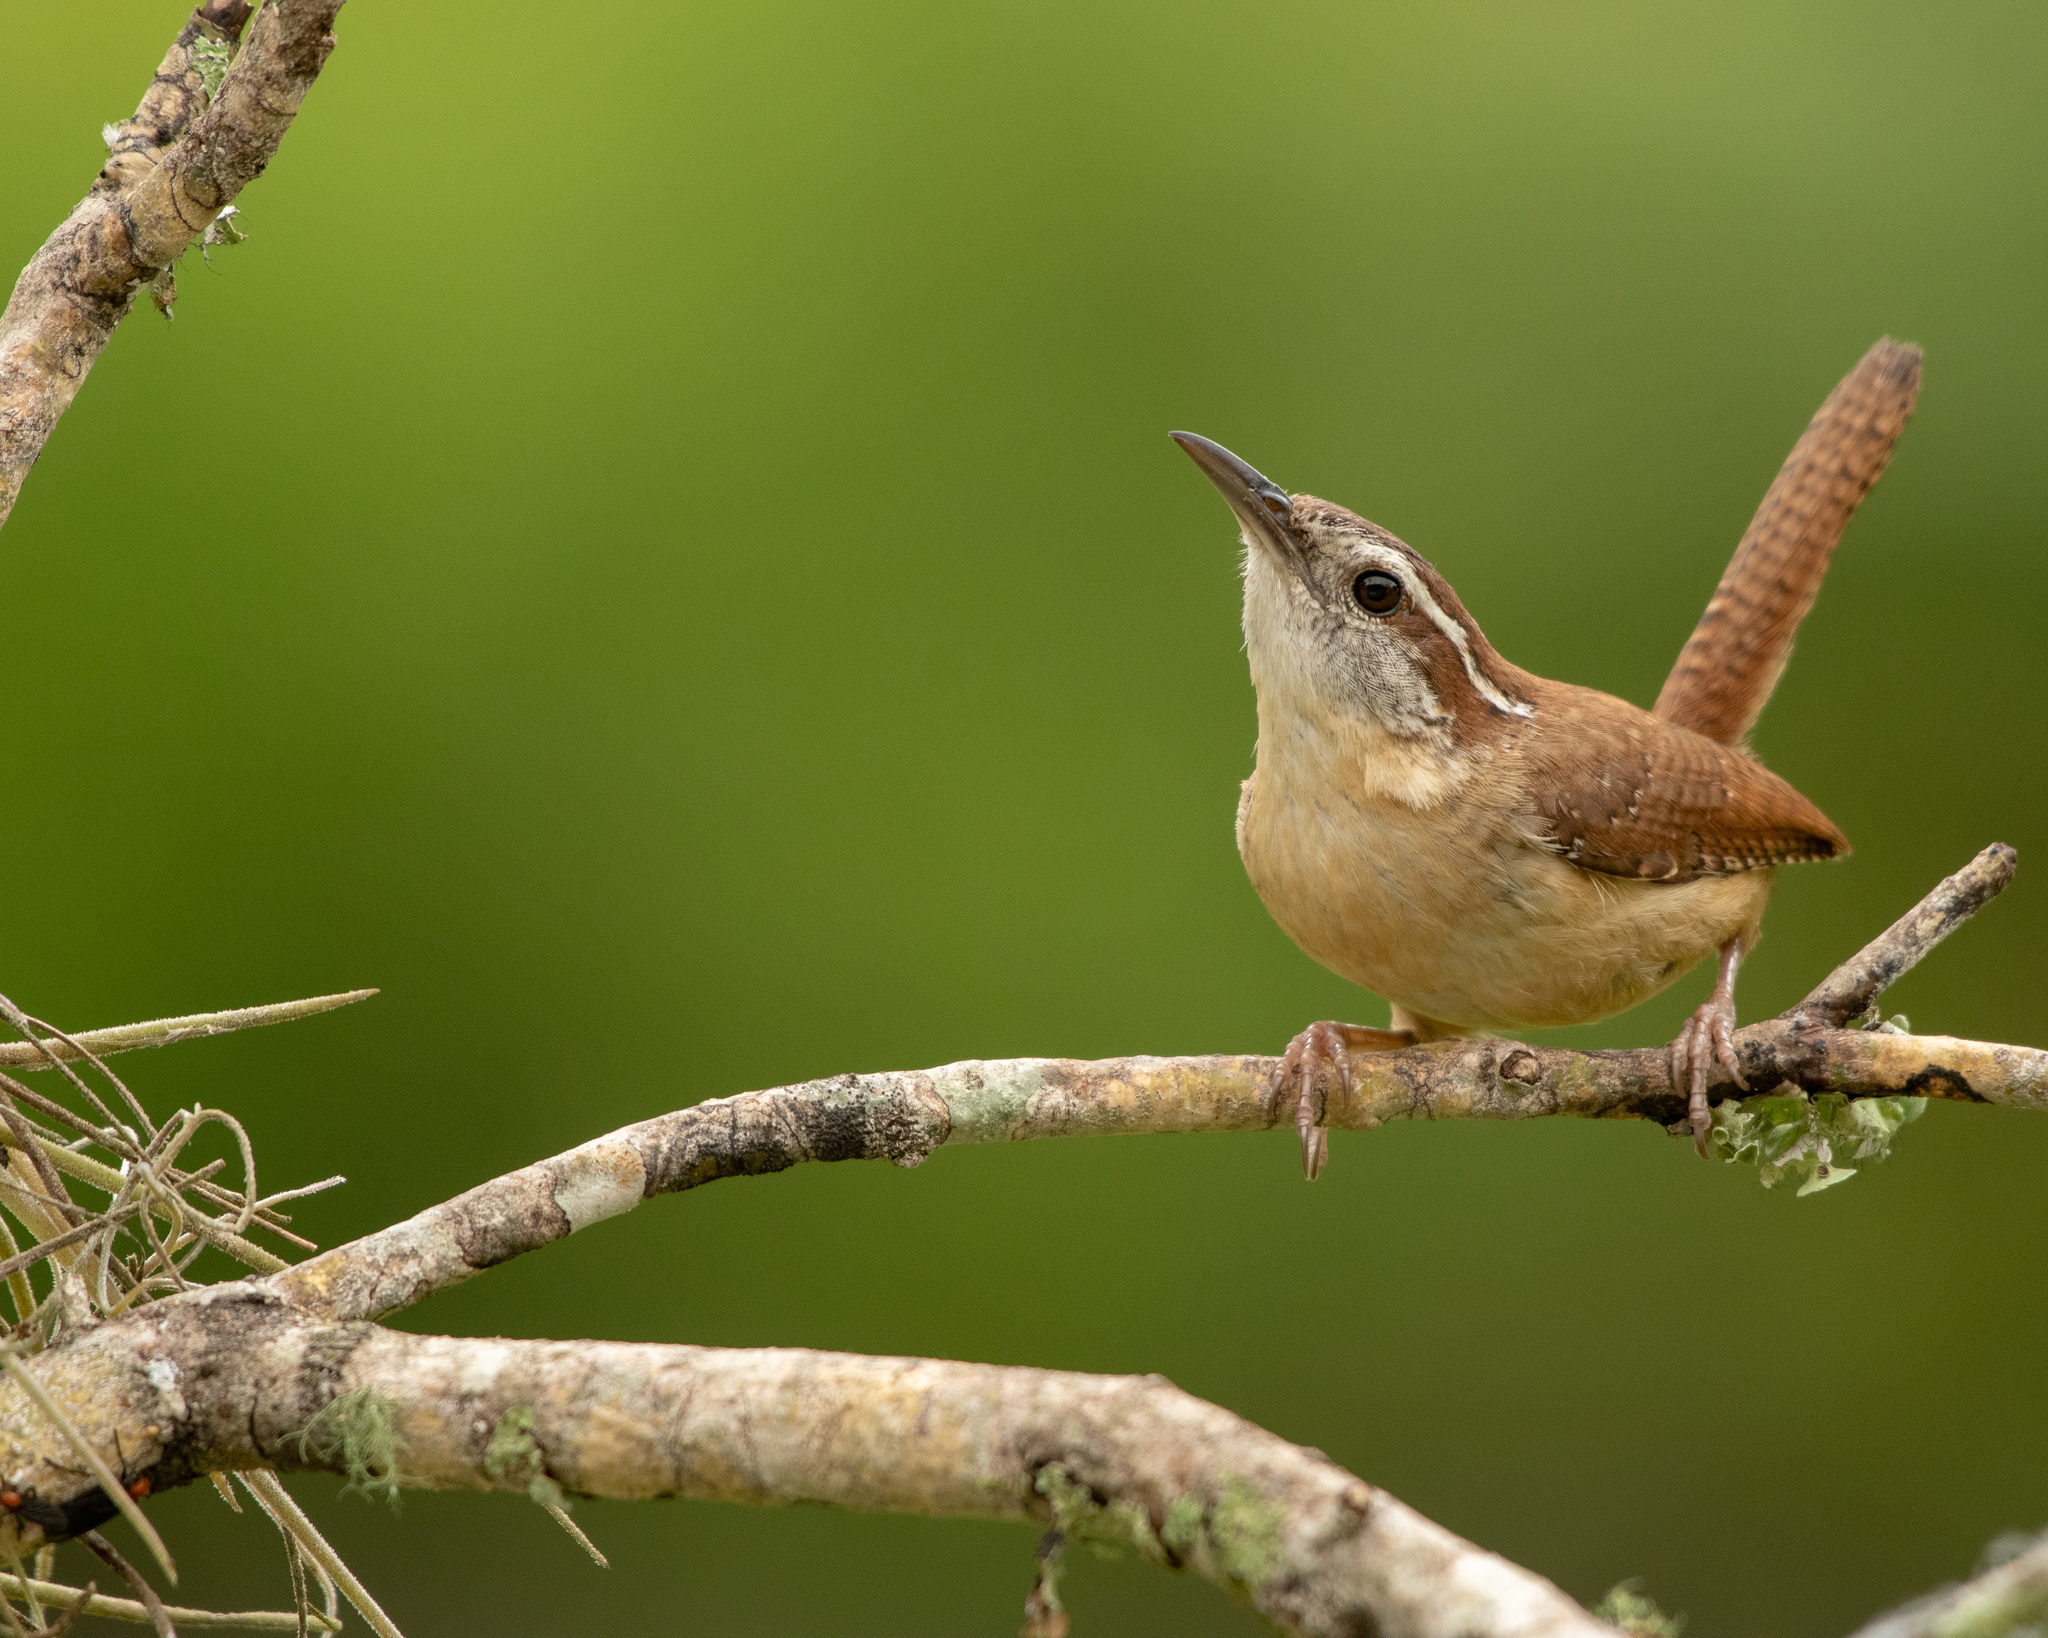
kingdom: Animalia
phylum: Chordata
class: Aves
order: Passeriformes
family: Troglodytidae
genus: Thryothorus
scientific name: Thryothorus ludovicianus
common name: Carolina wren
